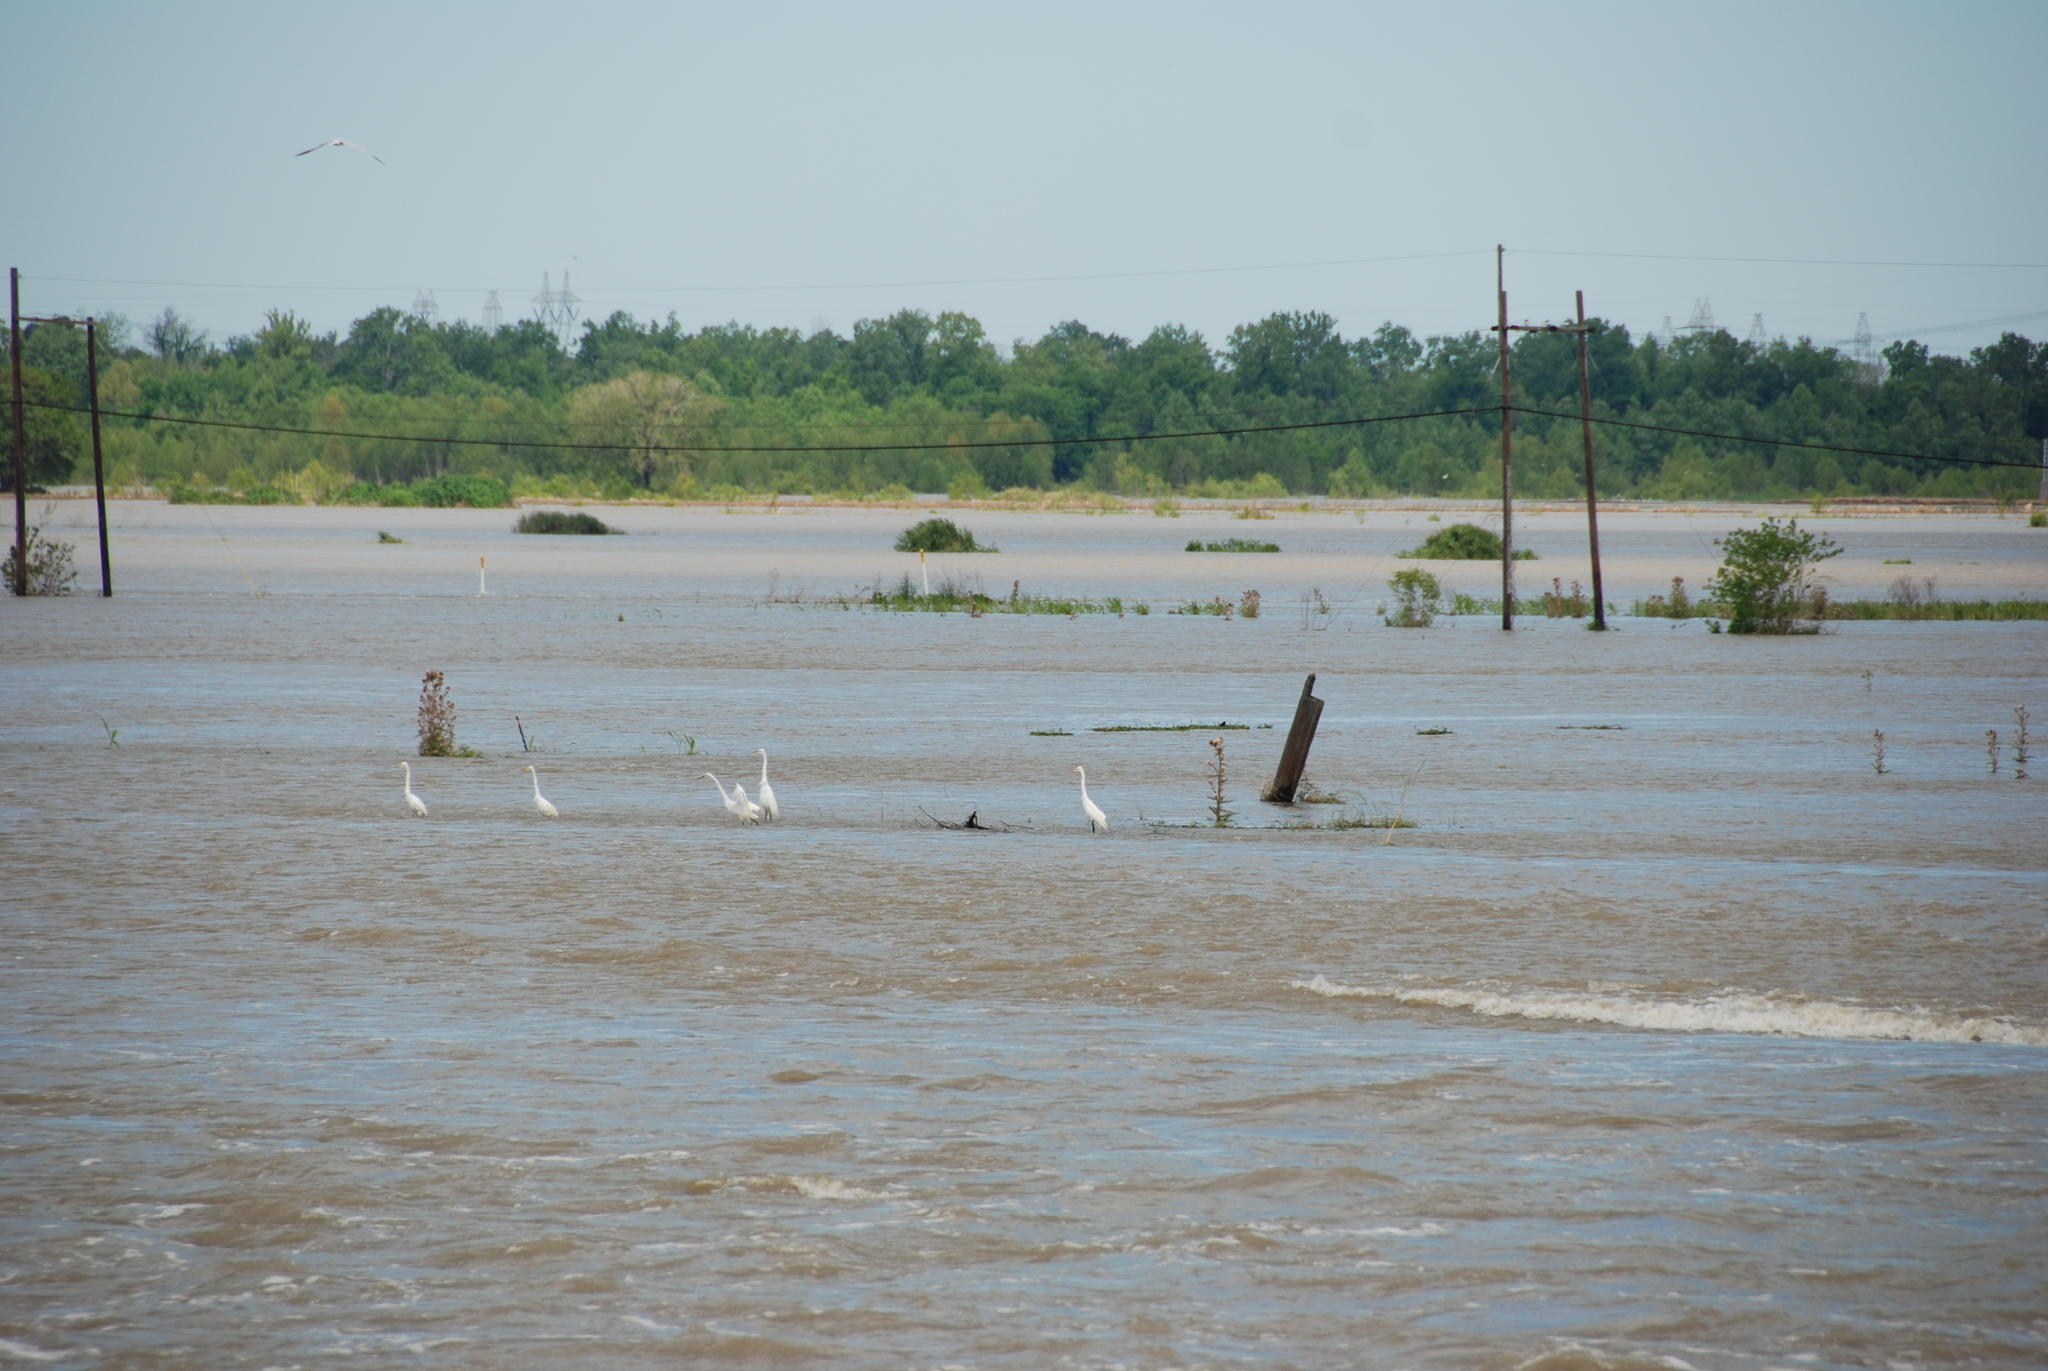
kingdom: Animalia
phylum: Chordata
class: Aves
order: Pelecaniformes
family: Ardeidae
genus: Ardea
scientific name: Ardea alba
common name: Great egret
